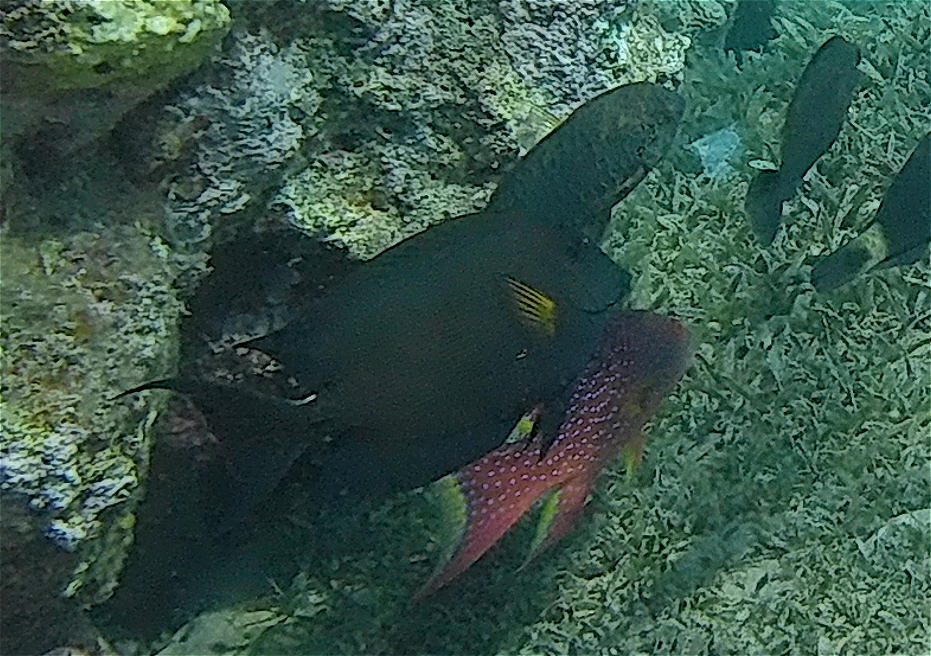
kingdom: Animalia
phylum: Chordata
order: Perciformes
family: Acanthuridae
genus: Ctenochaetus
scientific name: Ctenochaetus striatus
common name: Bristle-toothed surgeonfish
